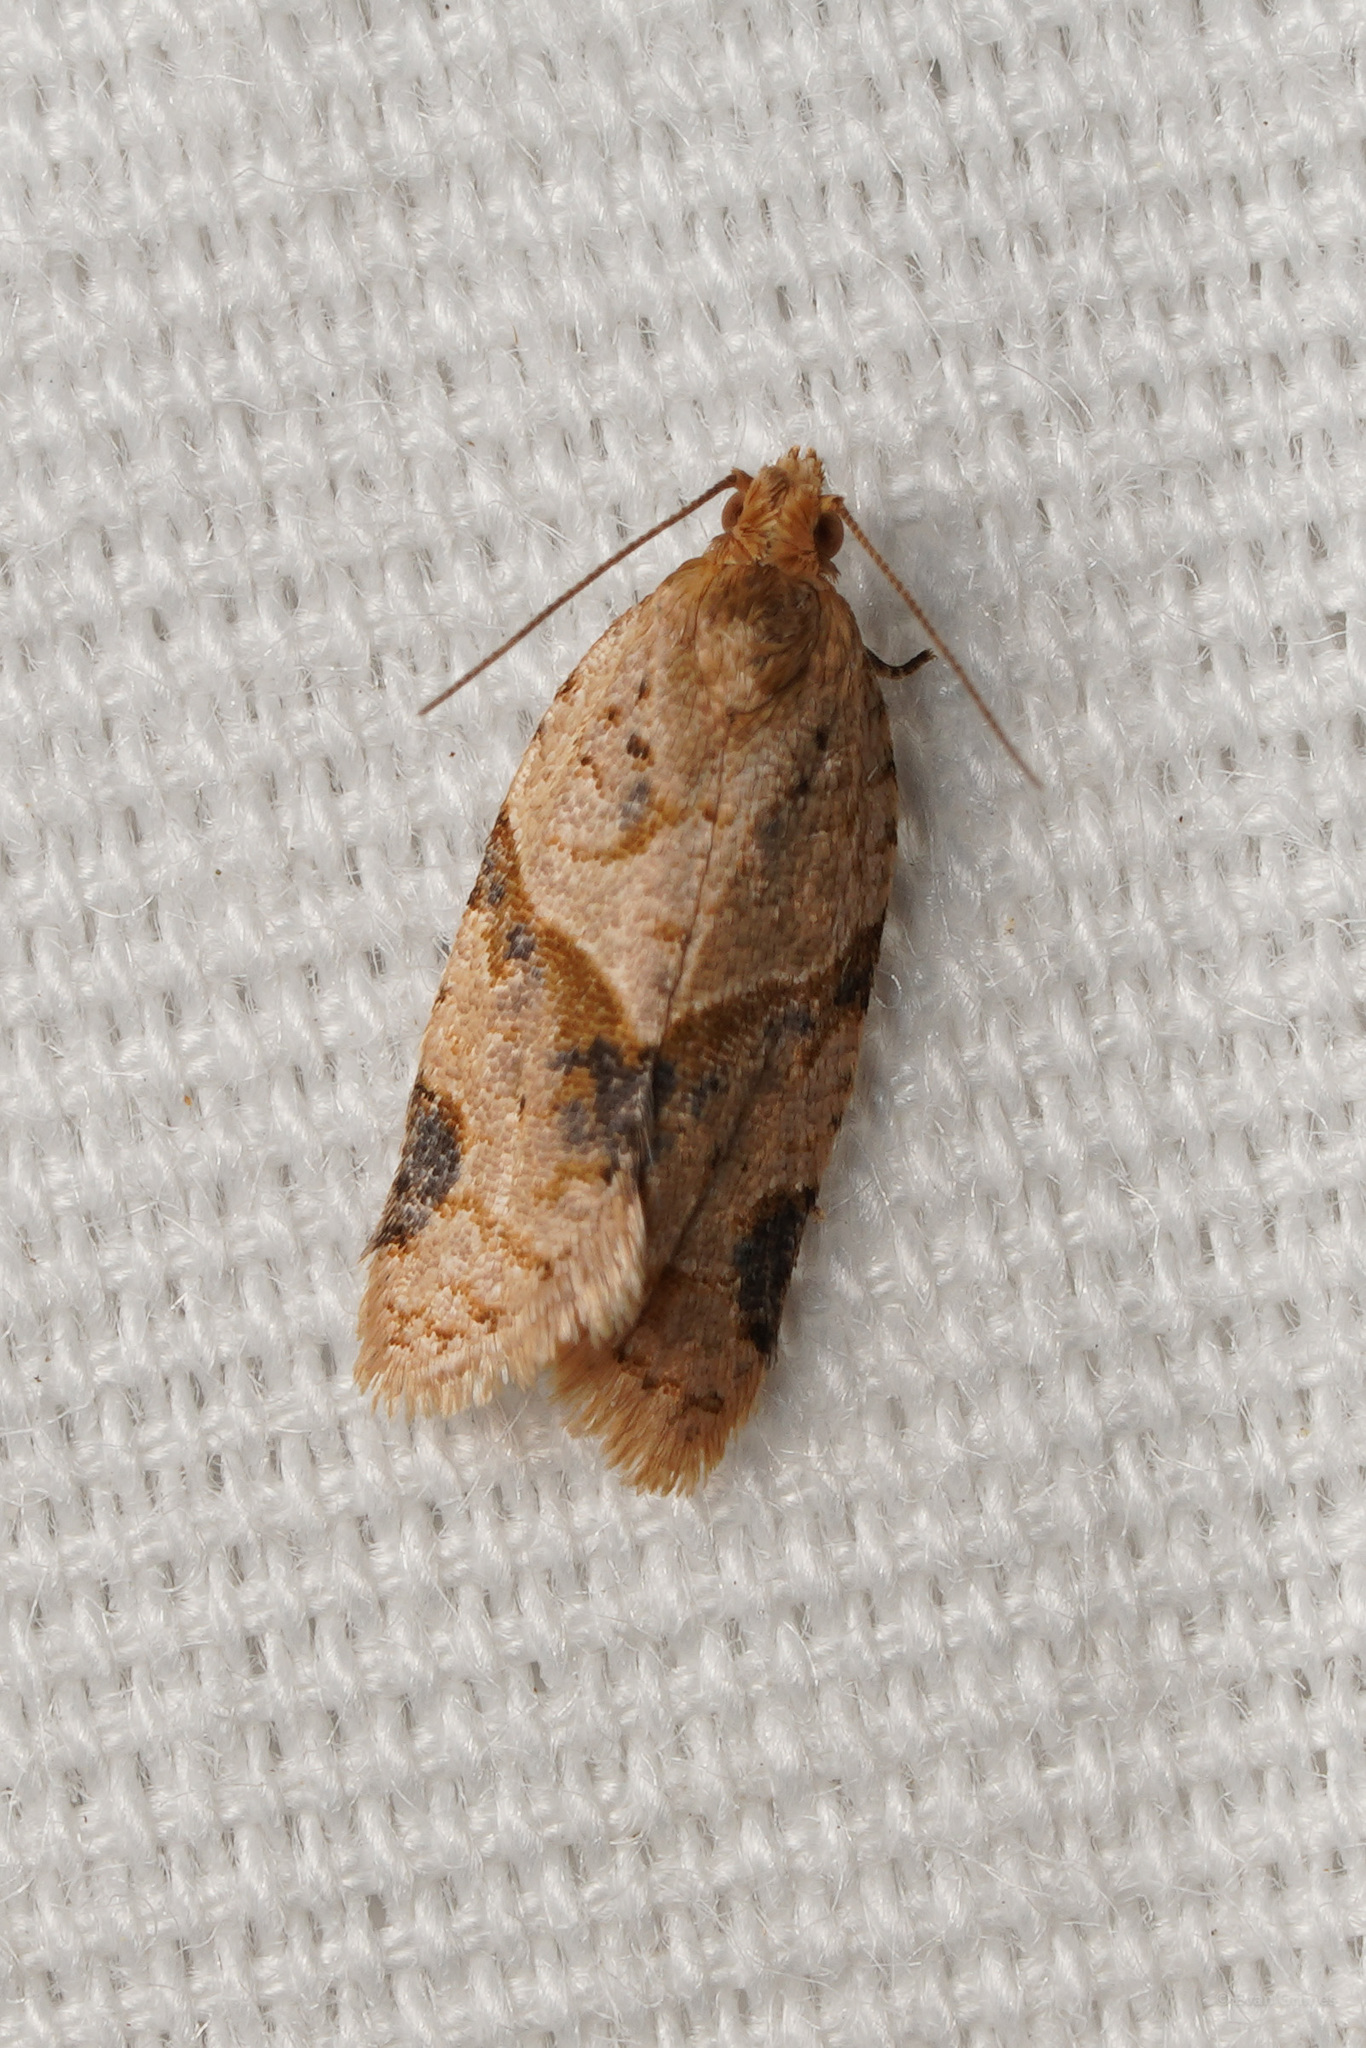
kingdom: Animalia
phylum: Arthropoda
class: Insecta
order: Lepidoptera
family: Tortricidae
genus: Clepsis
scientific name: Clepsis peritana
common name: Garden tortrix
